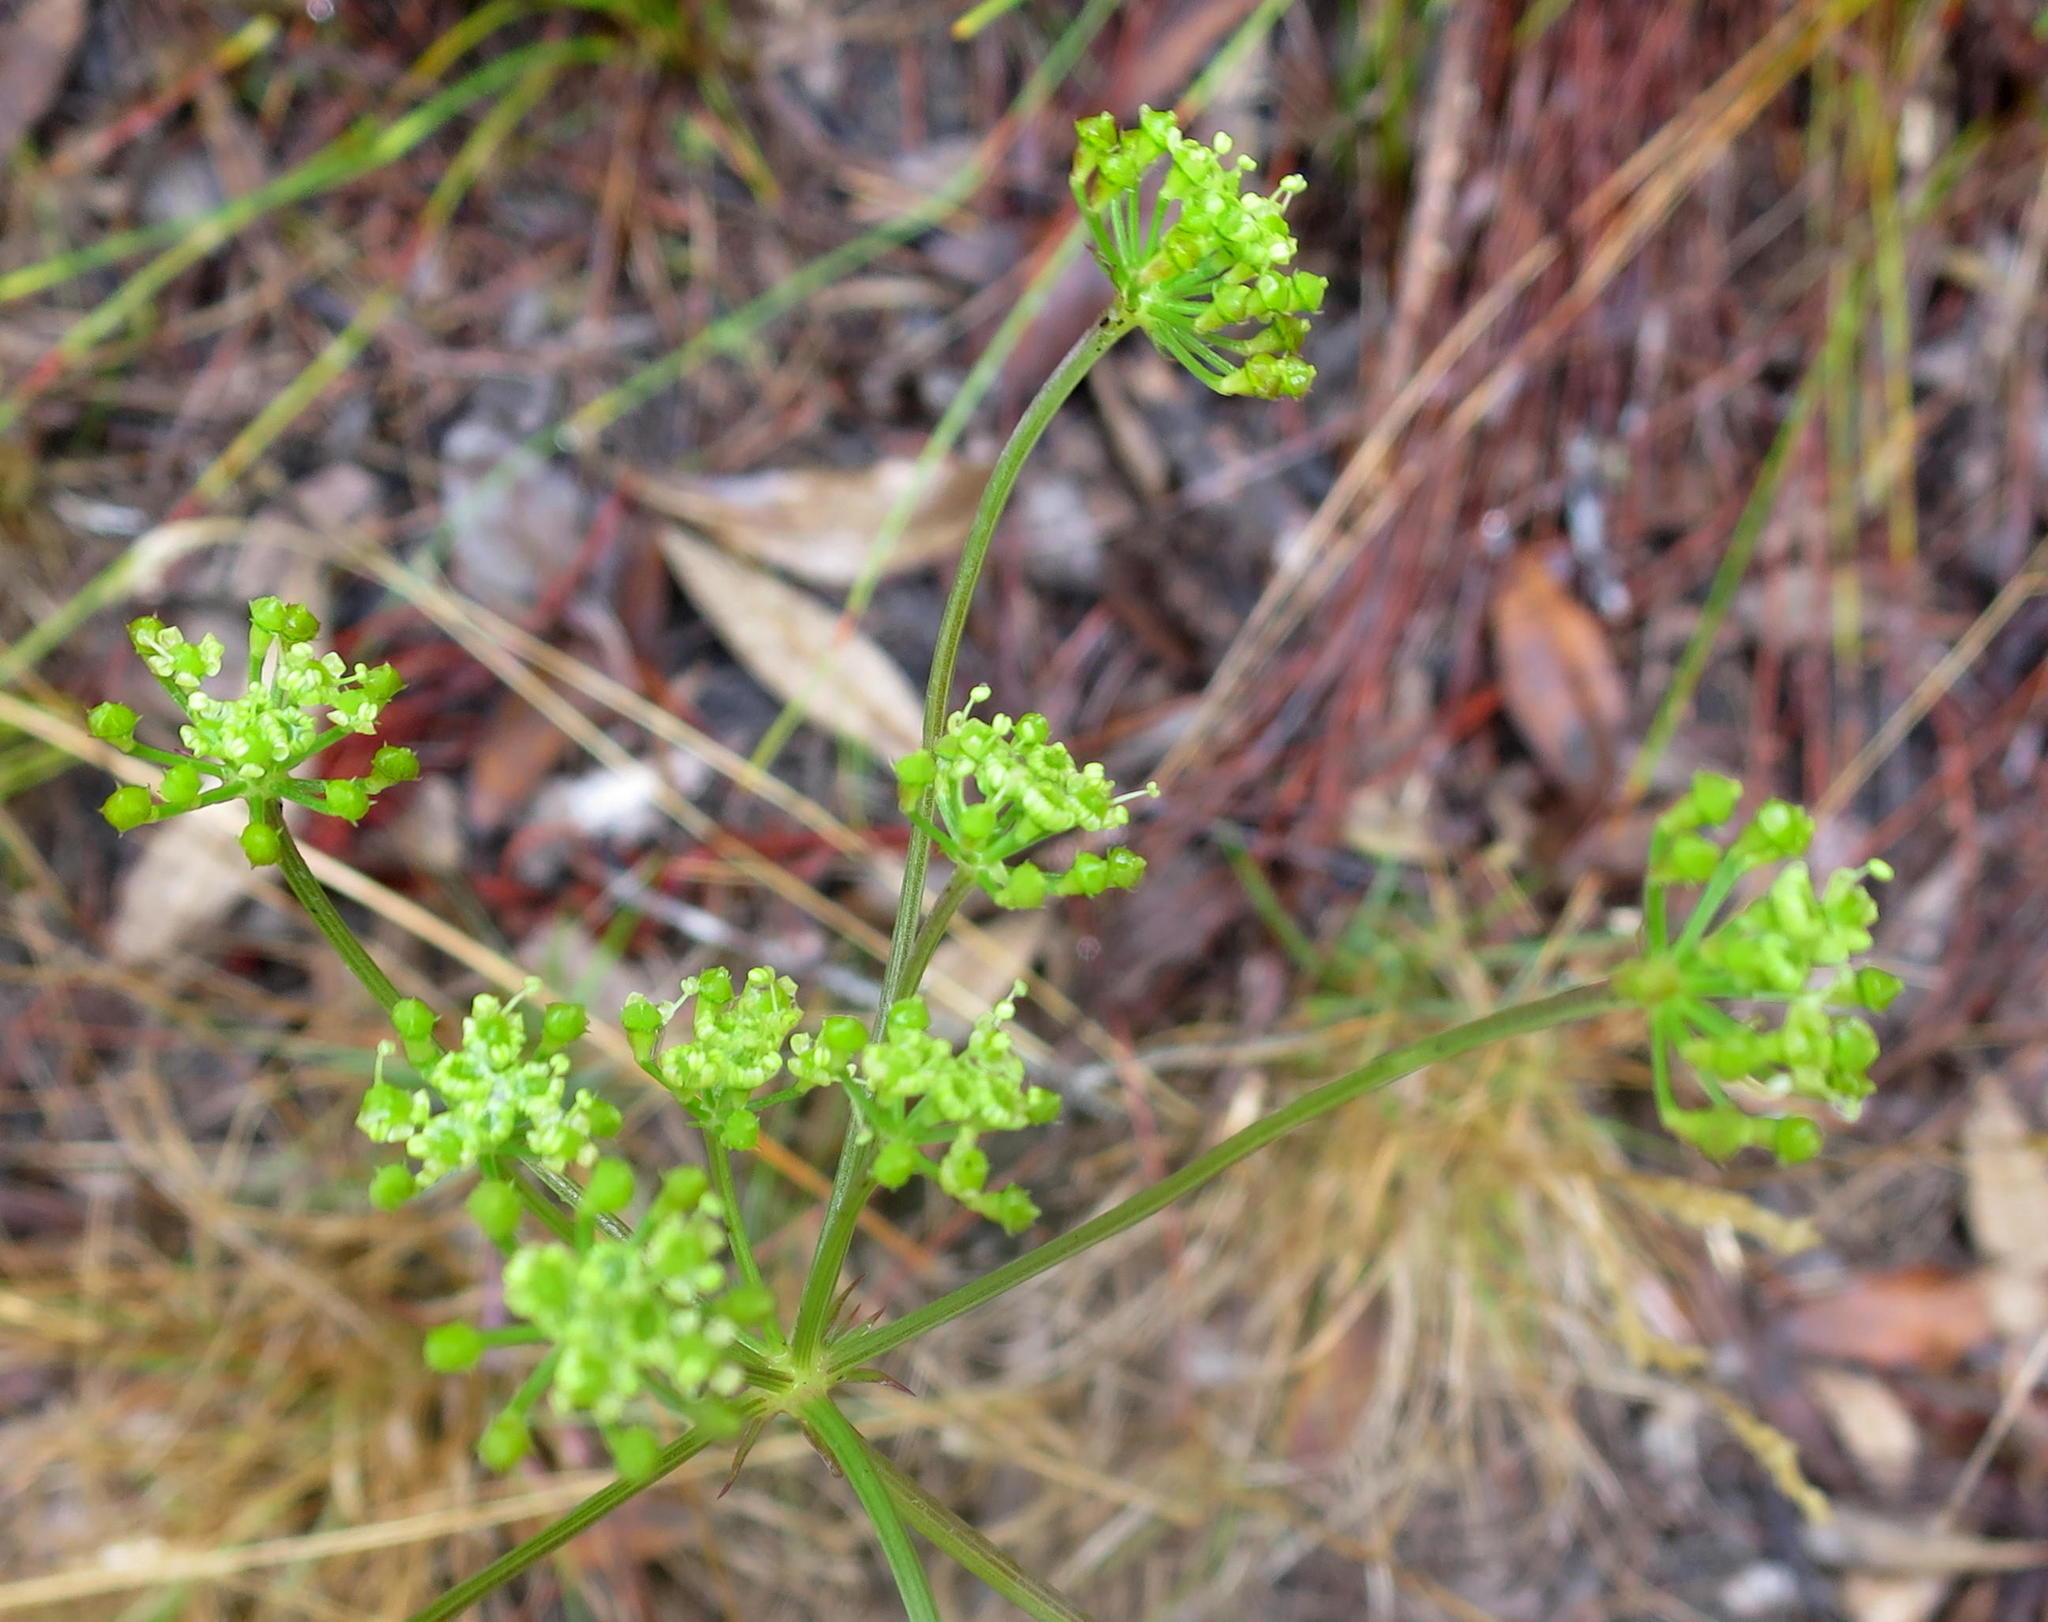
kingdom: Plantae
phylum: Tracheophyta
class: Magnoliopsida
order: Apiales
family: Apiaceae
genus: Nanobubon
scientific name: Nanobubon hypogaeum
